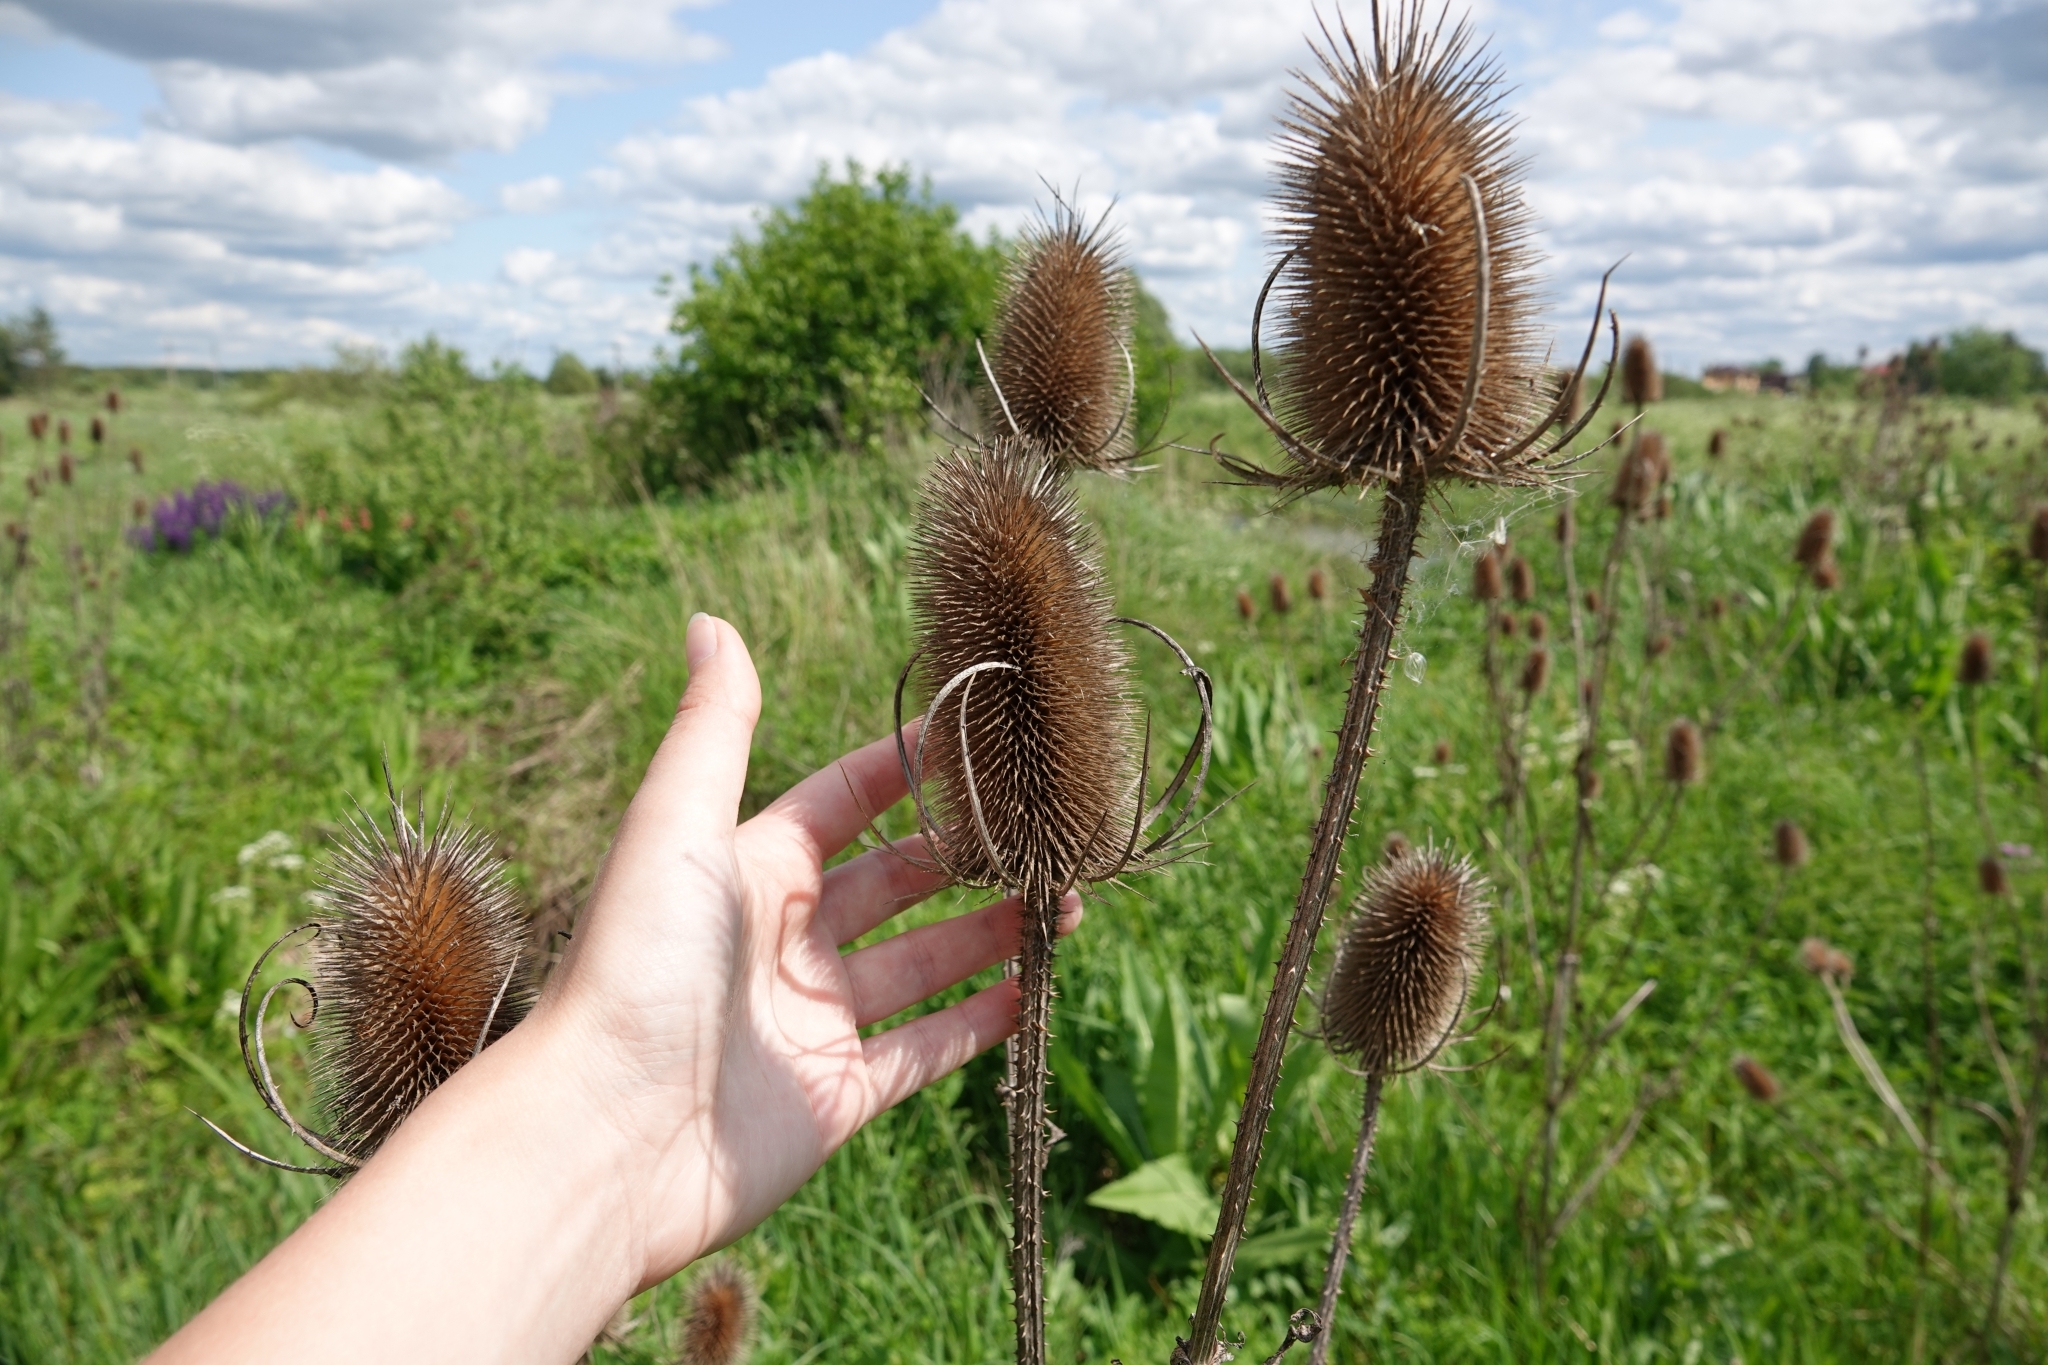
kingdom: Plantae
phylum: Tracheophyta
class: Magnoliopsida
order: Dipsacales
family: Caprifoliaceae
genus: Dipsacus
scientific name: Dipsacus fullonum
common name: Teasel
